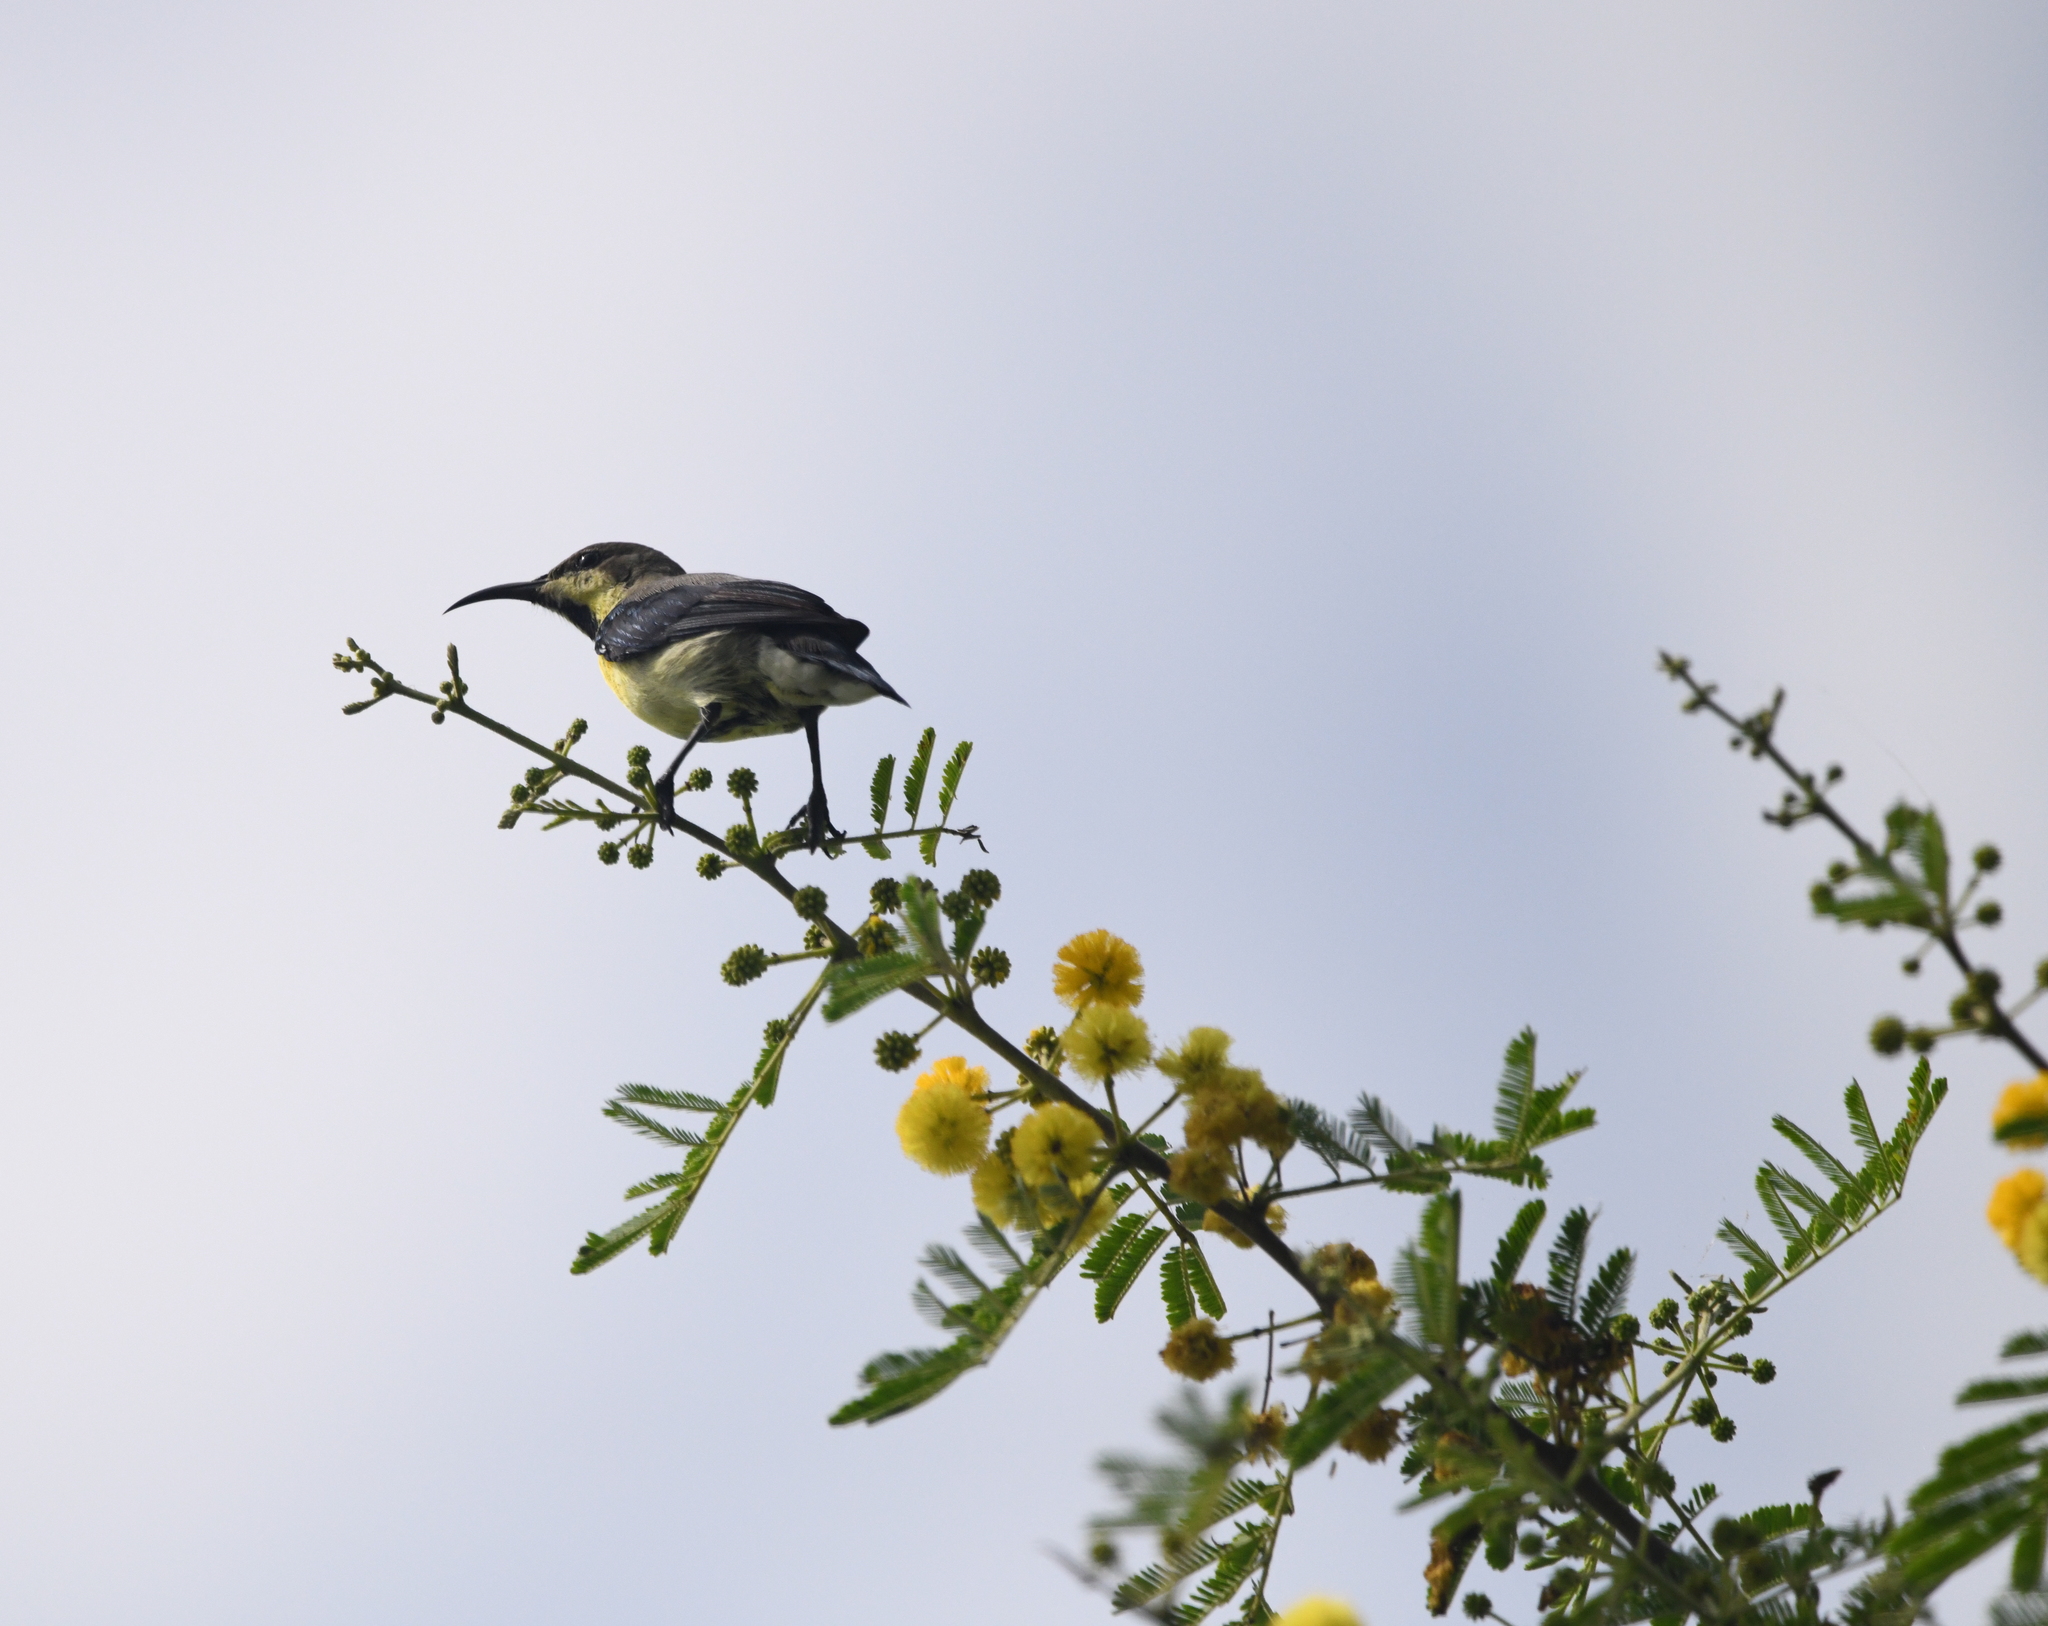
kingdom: Animalia
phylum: Chordata
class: Aves
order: Passeriformes
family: Nectariniidae
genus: Cinnyris
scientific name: Cinnyris asiaticus
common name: Purple sunbird
